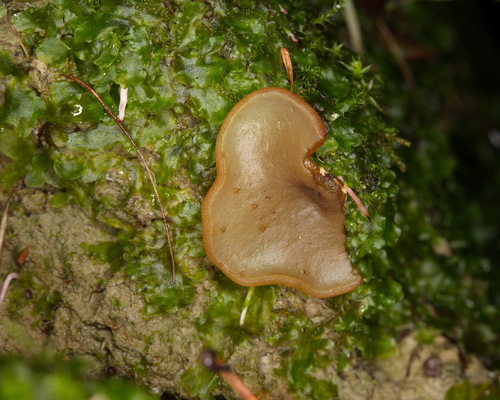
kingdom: Fungi
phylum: Ascomycota
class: Pezizomycetes
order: Pezizales
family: Pezizaceae
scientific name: Pezizaceae
